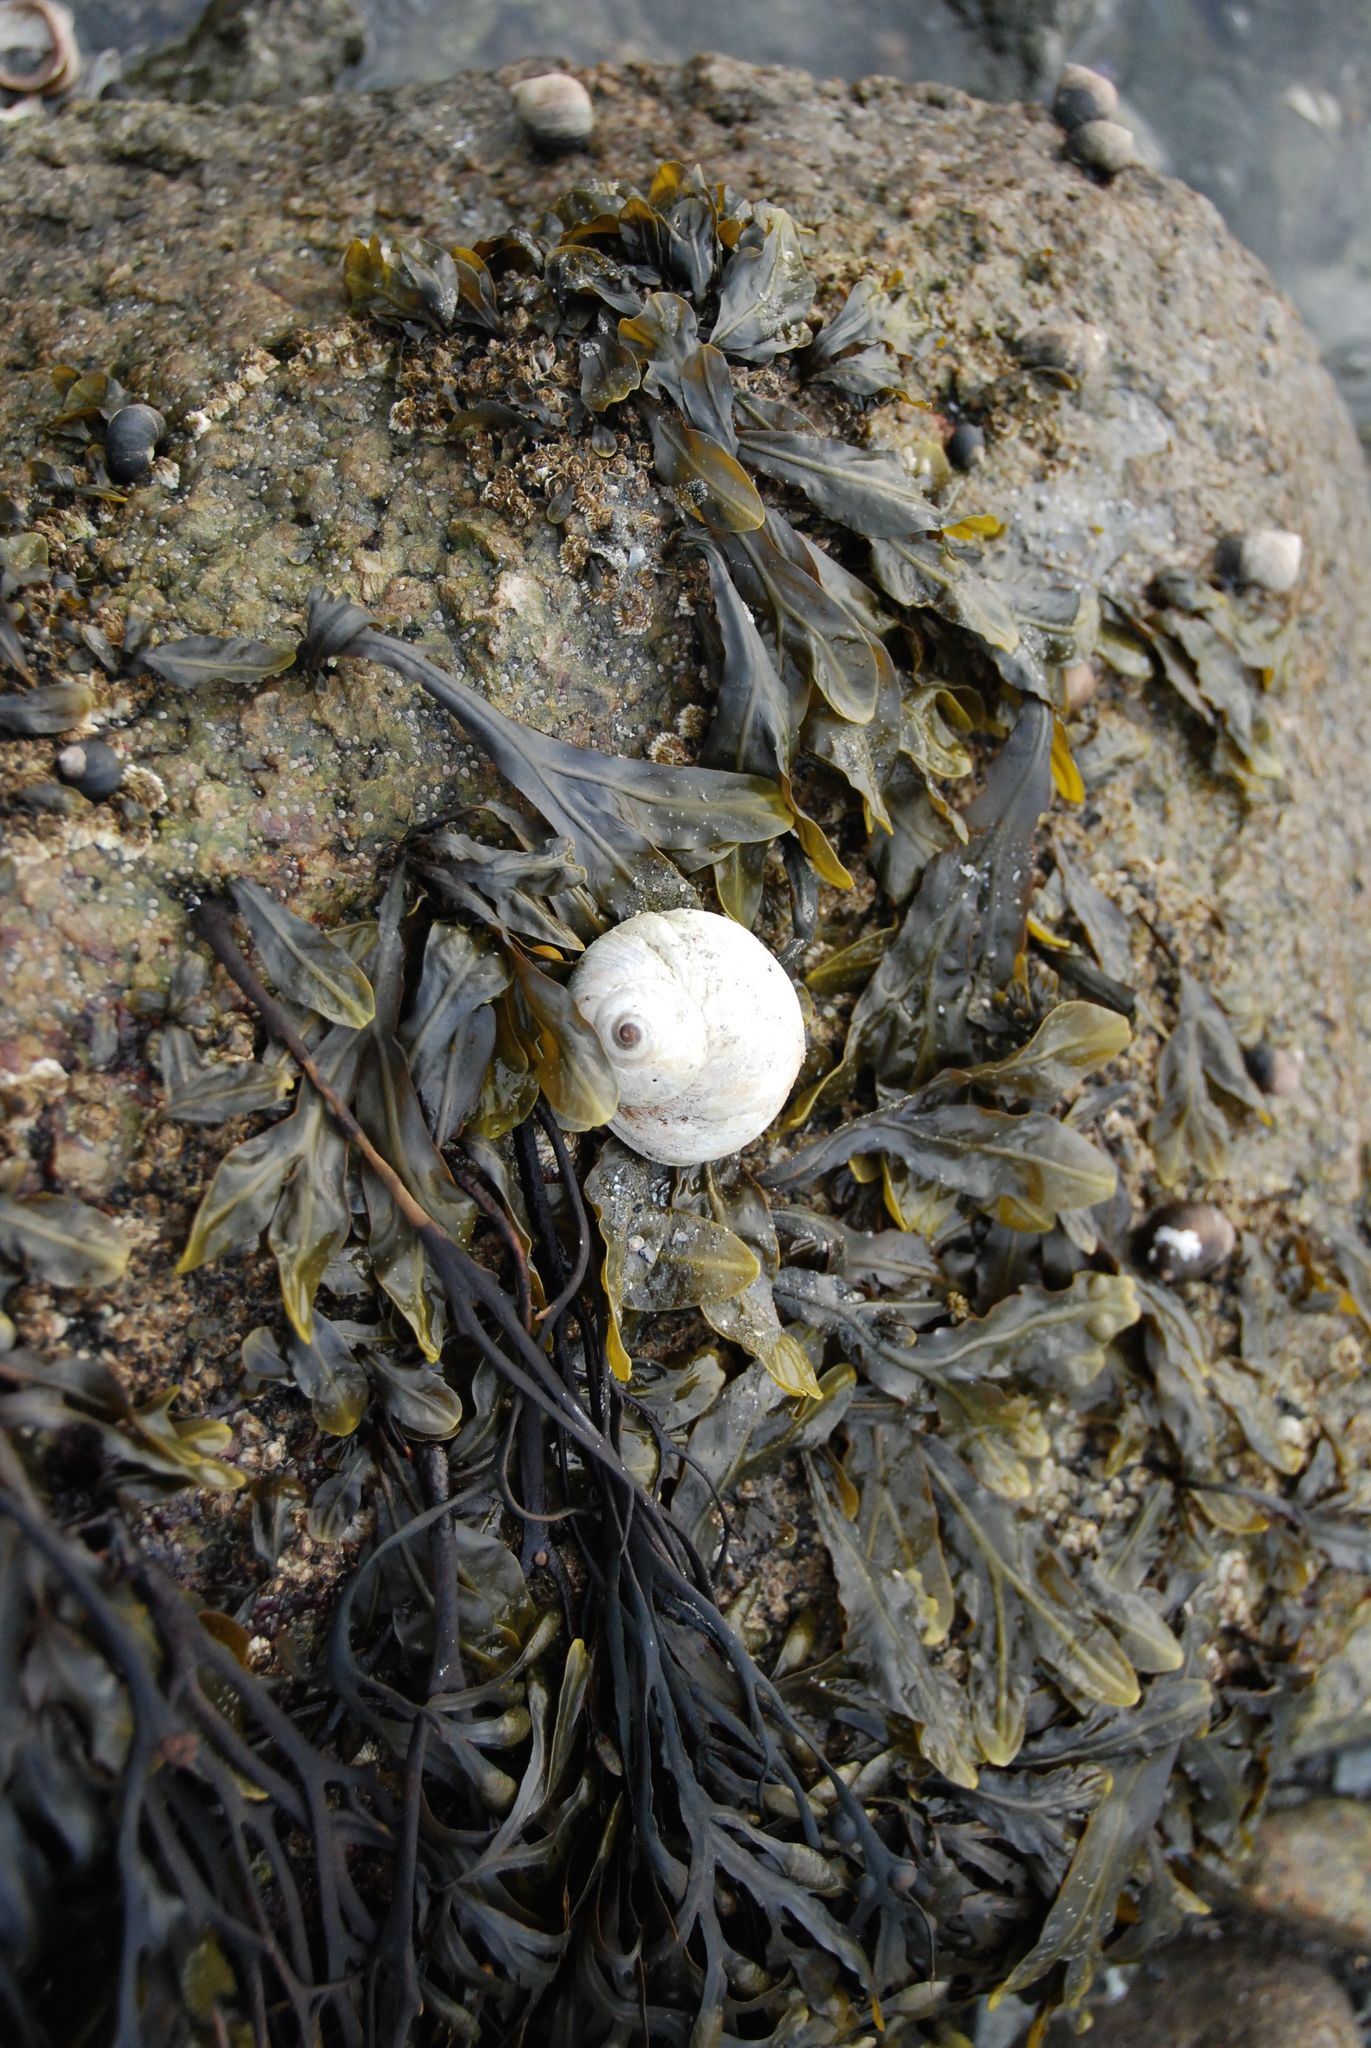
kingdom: Animalia
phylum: Mollusca
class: Gastropoda
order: Littorinimorpha
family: Naticidae
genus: Euspira
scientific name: Euspira heros
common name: Common northern moonsnail
